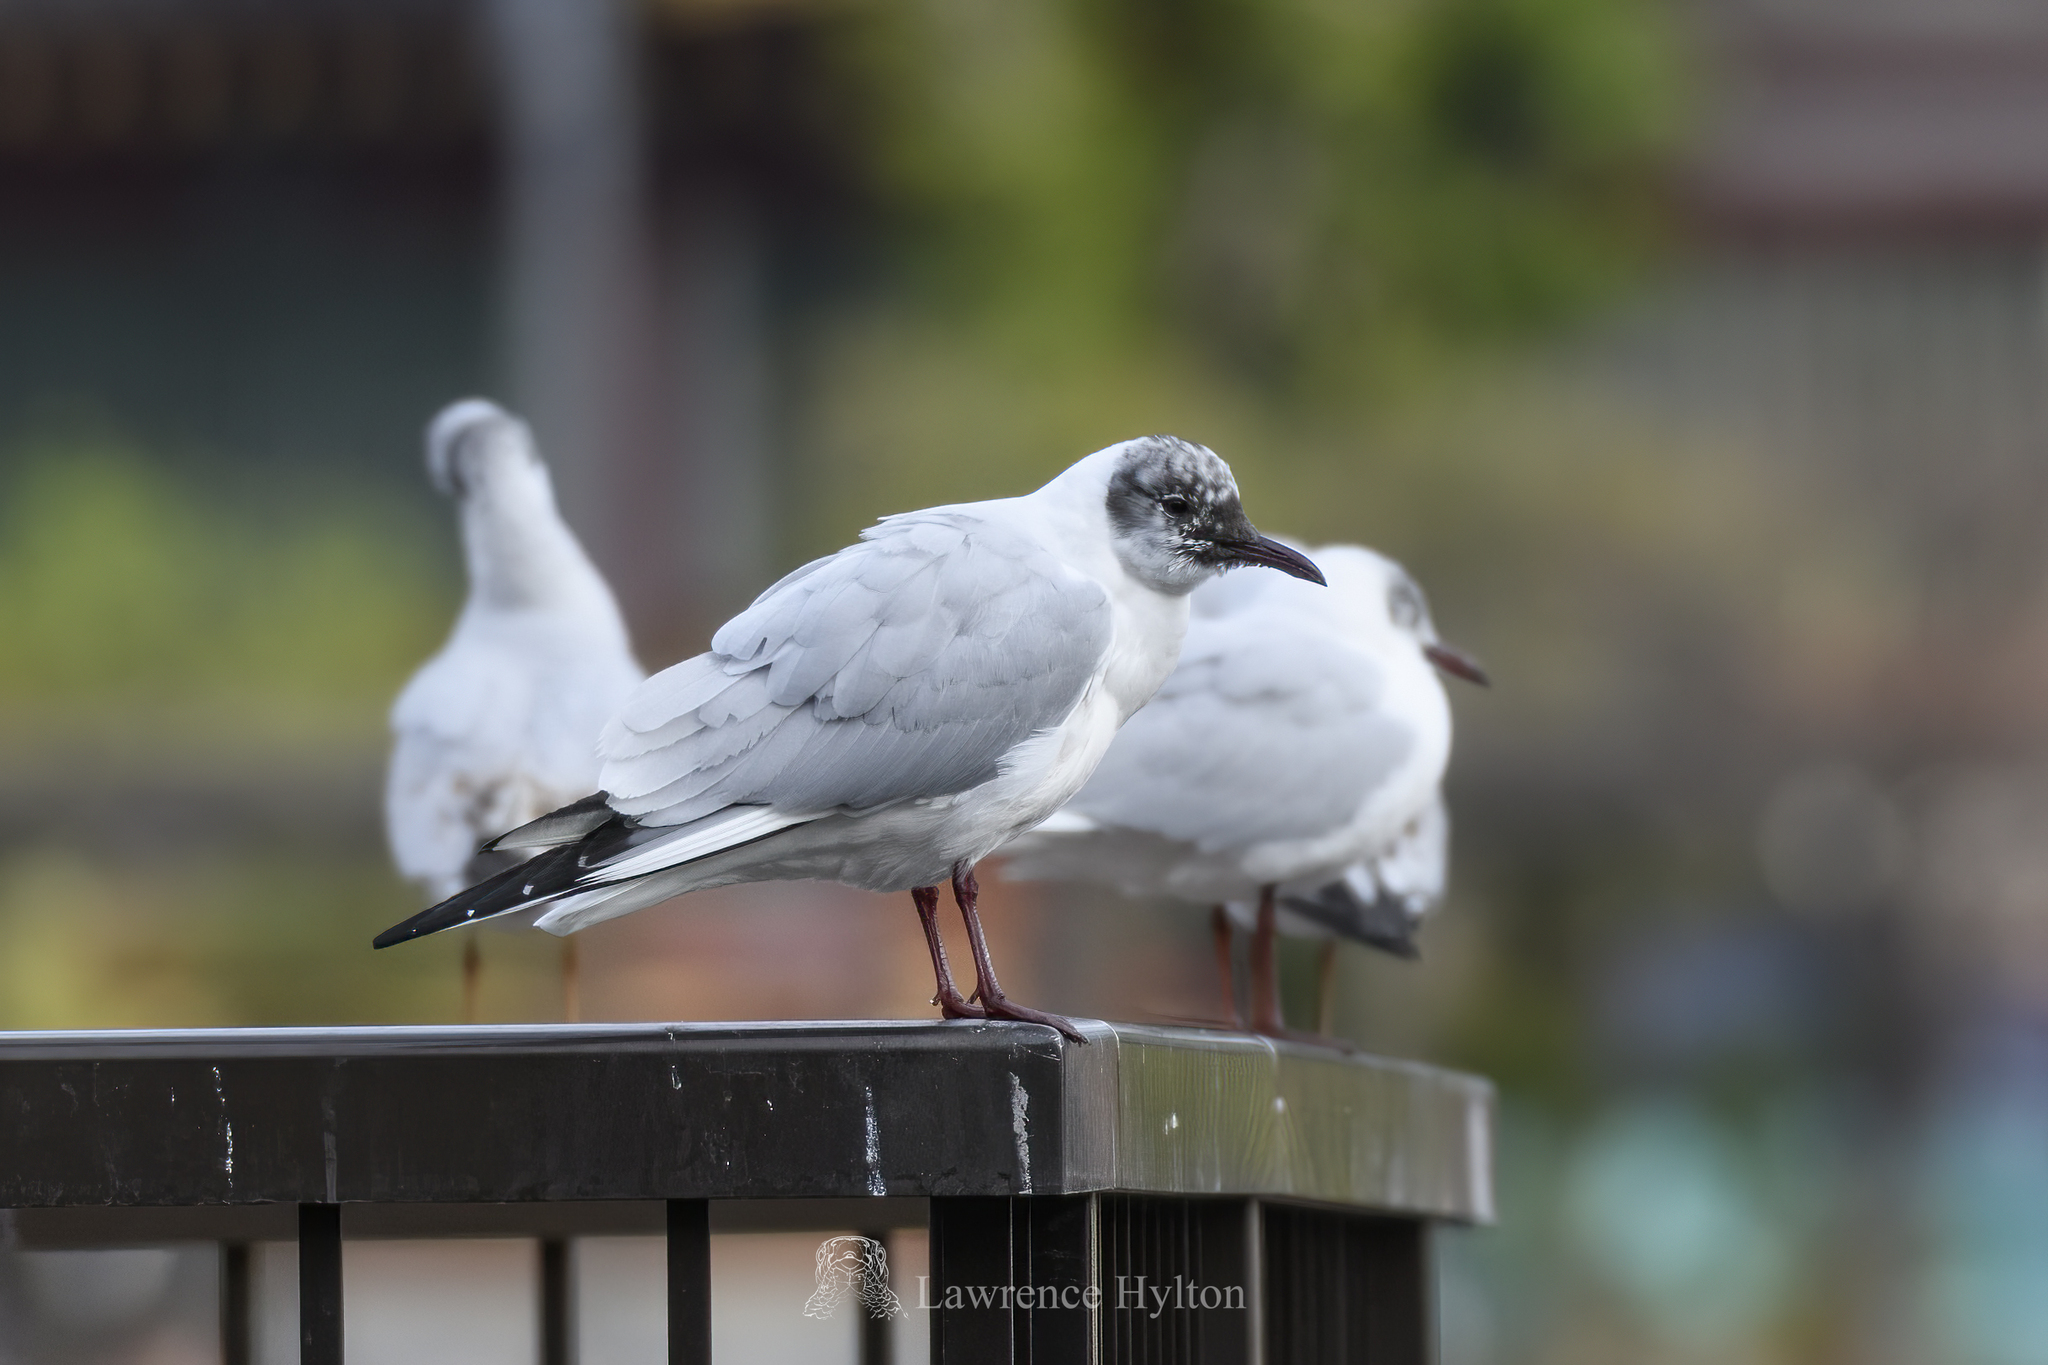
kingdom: Animalia
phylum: Chordata
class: Aves
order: Charadriiformes
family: Laridae
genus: Chroicocephalus
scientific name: Chroicocephalus ridibundus
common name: Black-headed gull
